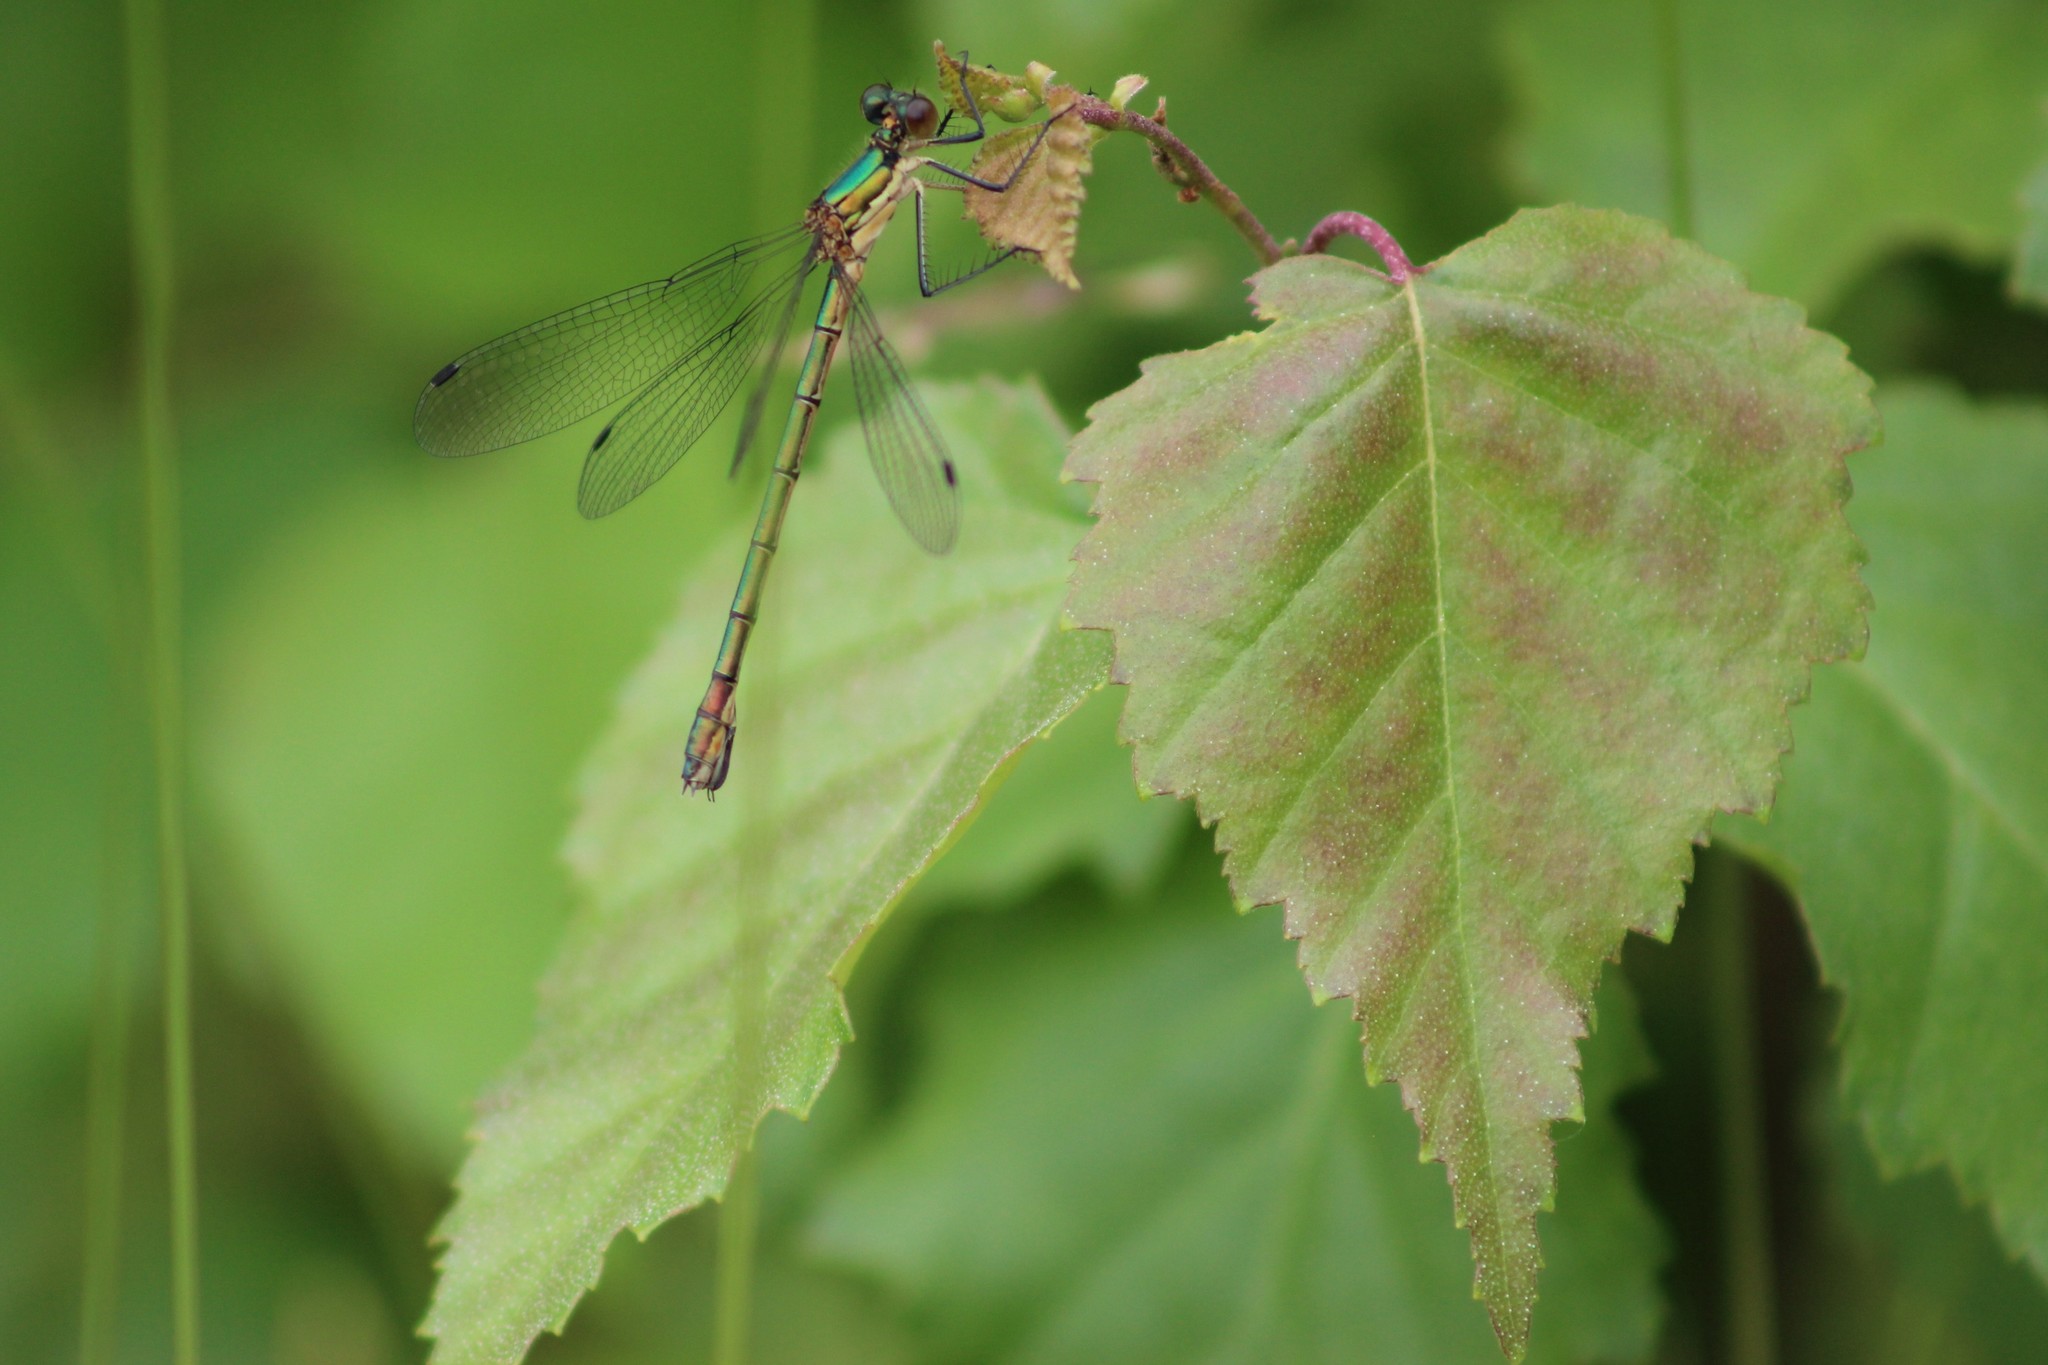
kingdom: Animalia
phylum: Arthropoda
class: Insecta
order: Odonata
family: Lestidae
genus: Lestes
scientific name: Lestes dryas
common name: Scarce emerald damselfly
